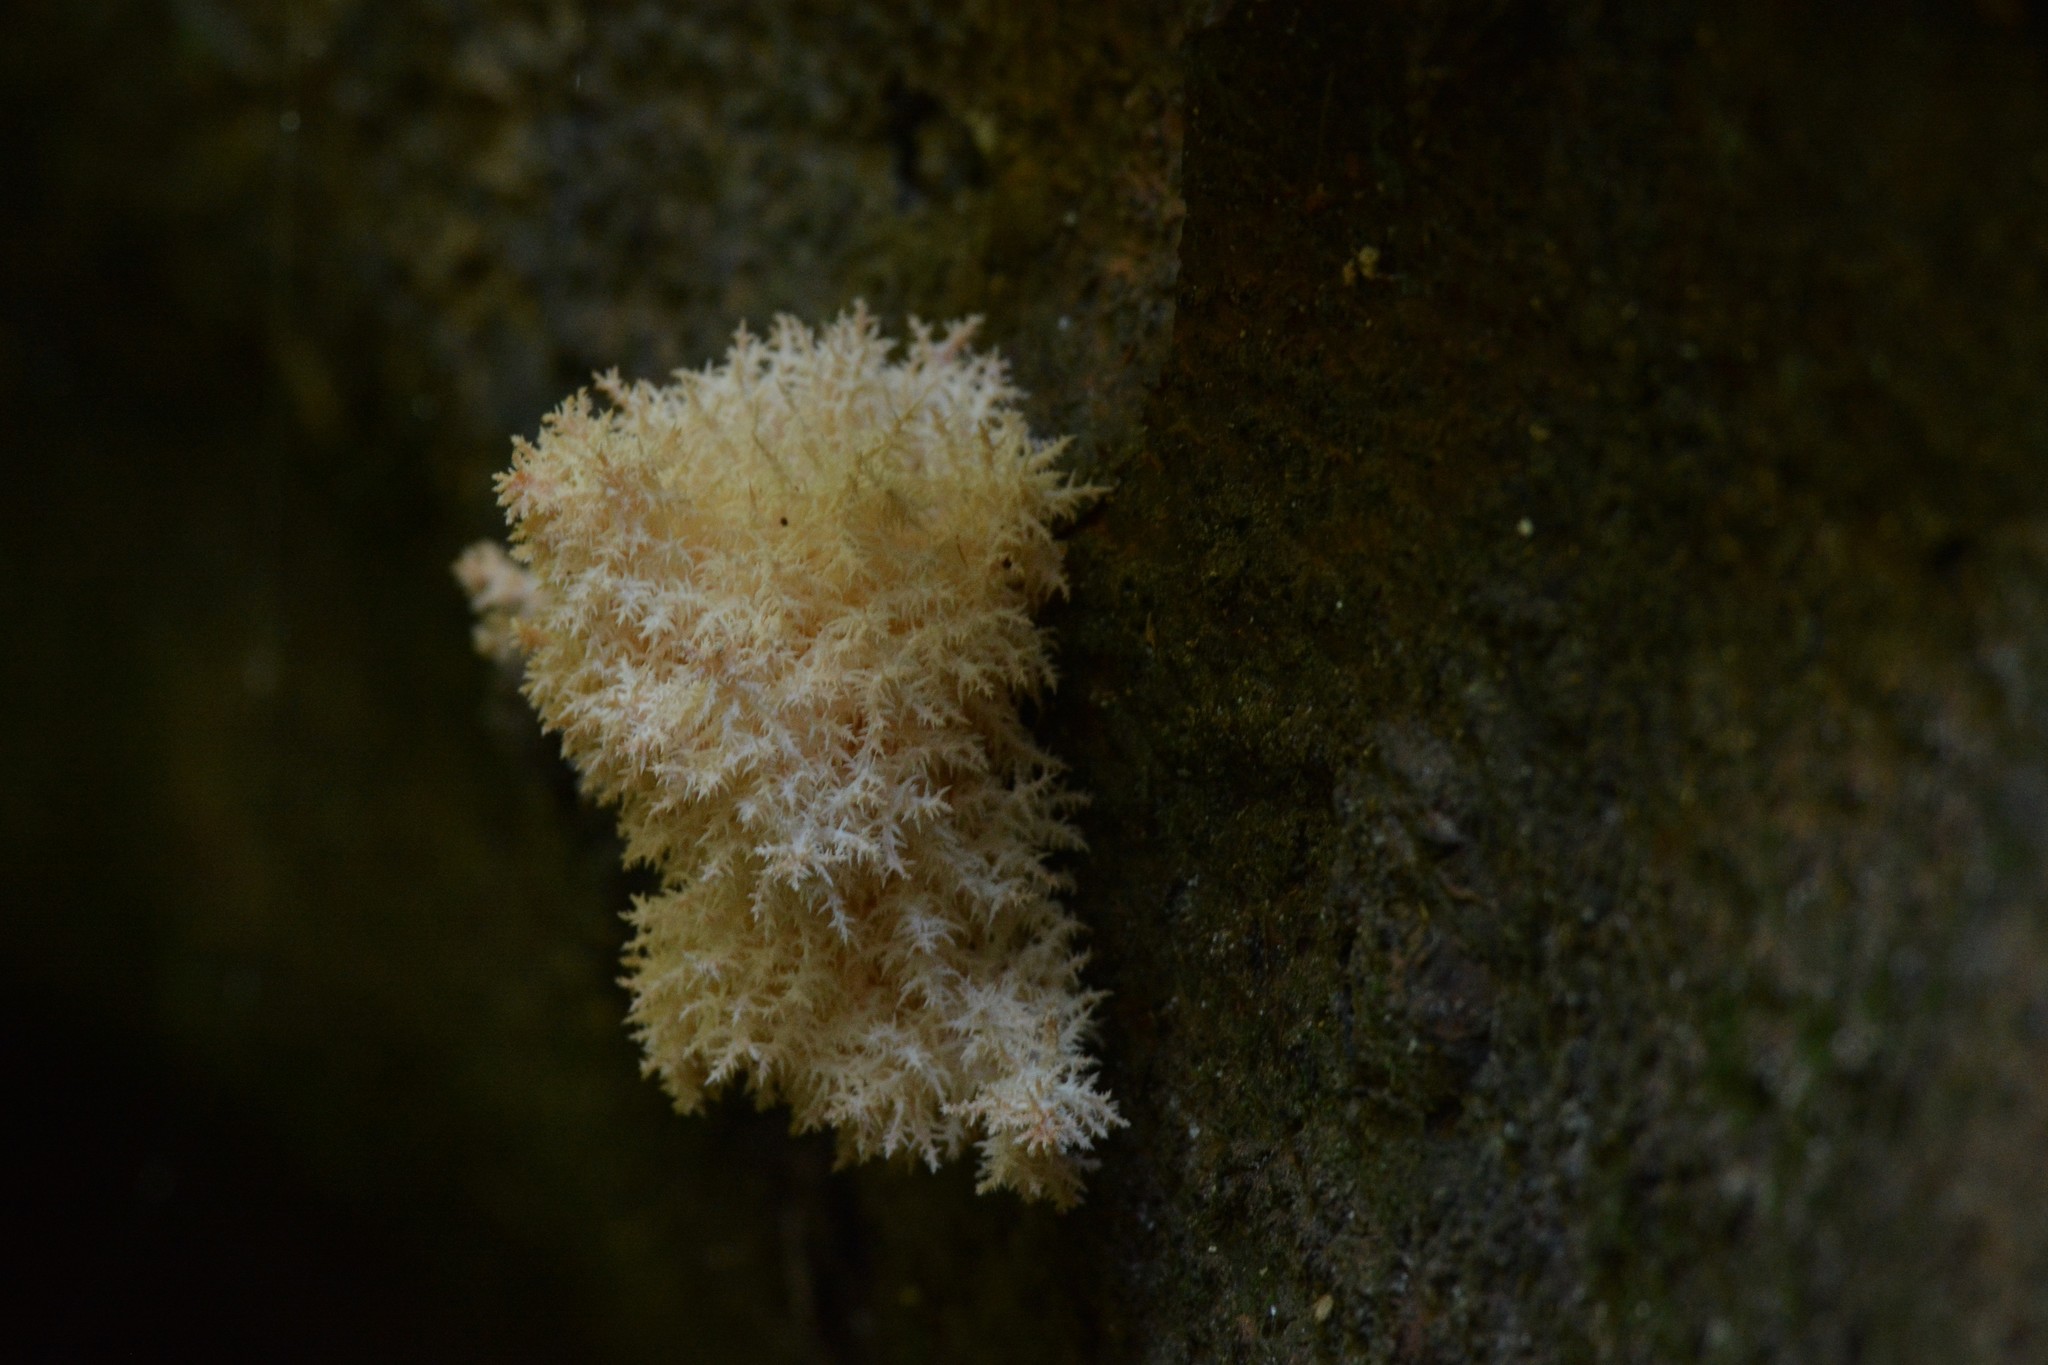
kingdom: Fungi
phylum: Basidiomycota
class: Agaricomycetes
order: Russulales
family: Hericiaceae
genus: Hericium
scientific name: Hericium novae-zealandiae
